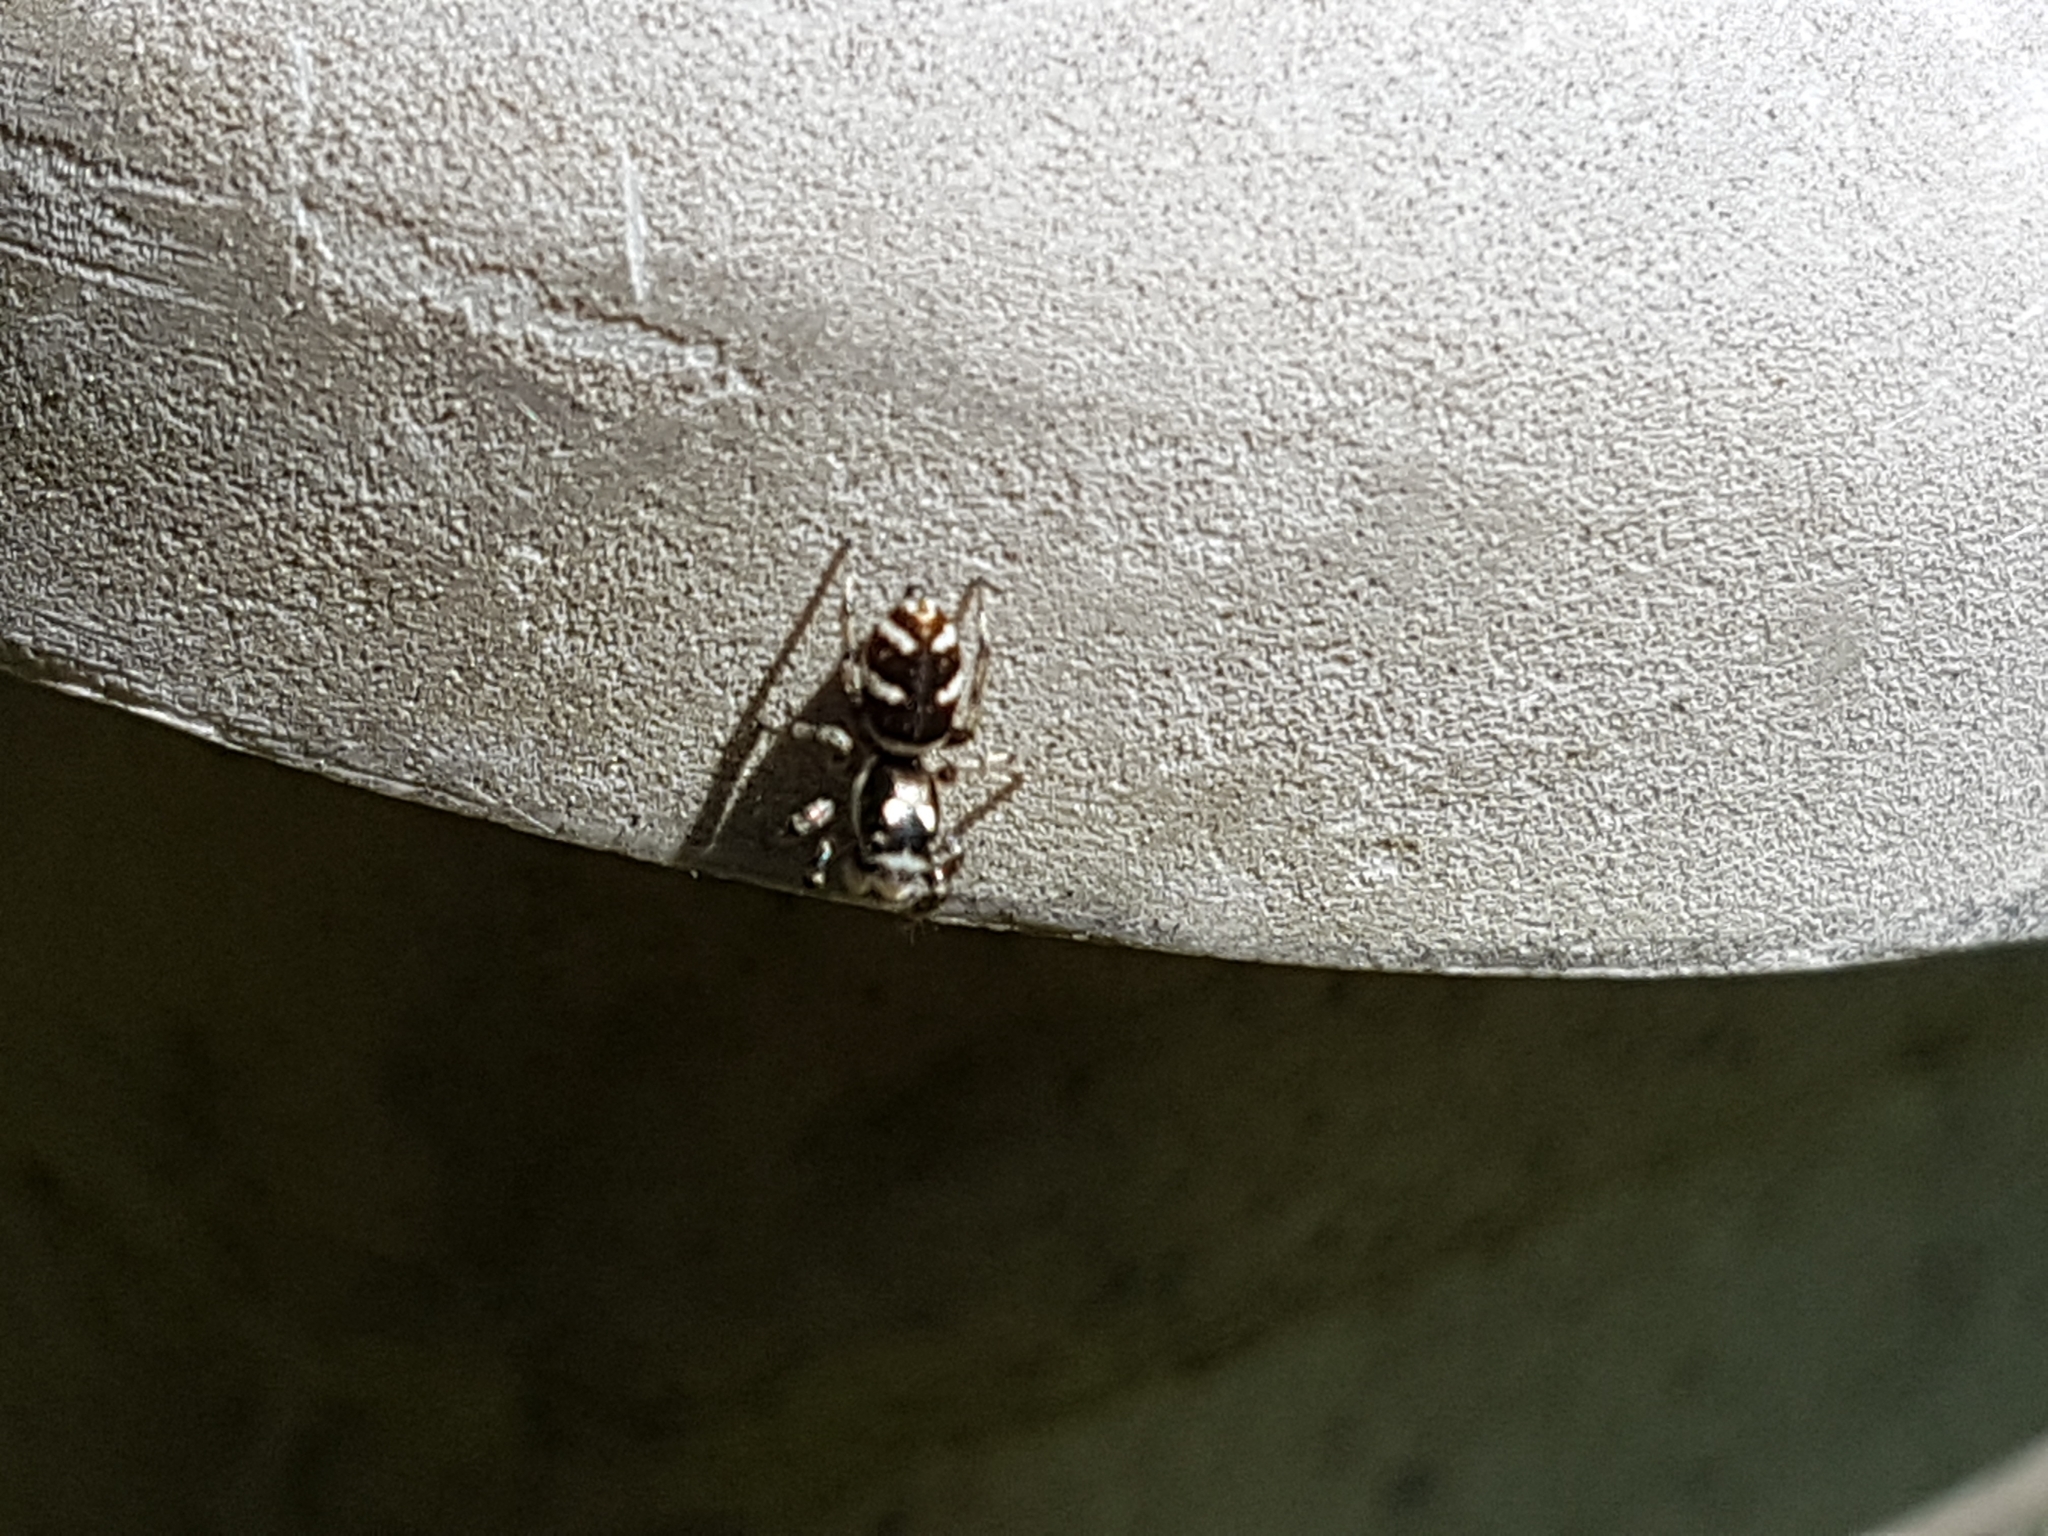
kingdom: Animalia
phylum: Arthropoda
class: Arachnida
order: Araneae
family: Salticidae
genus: Salticus
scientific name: Salticus scenicus
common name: Zebra jumper
